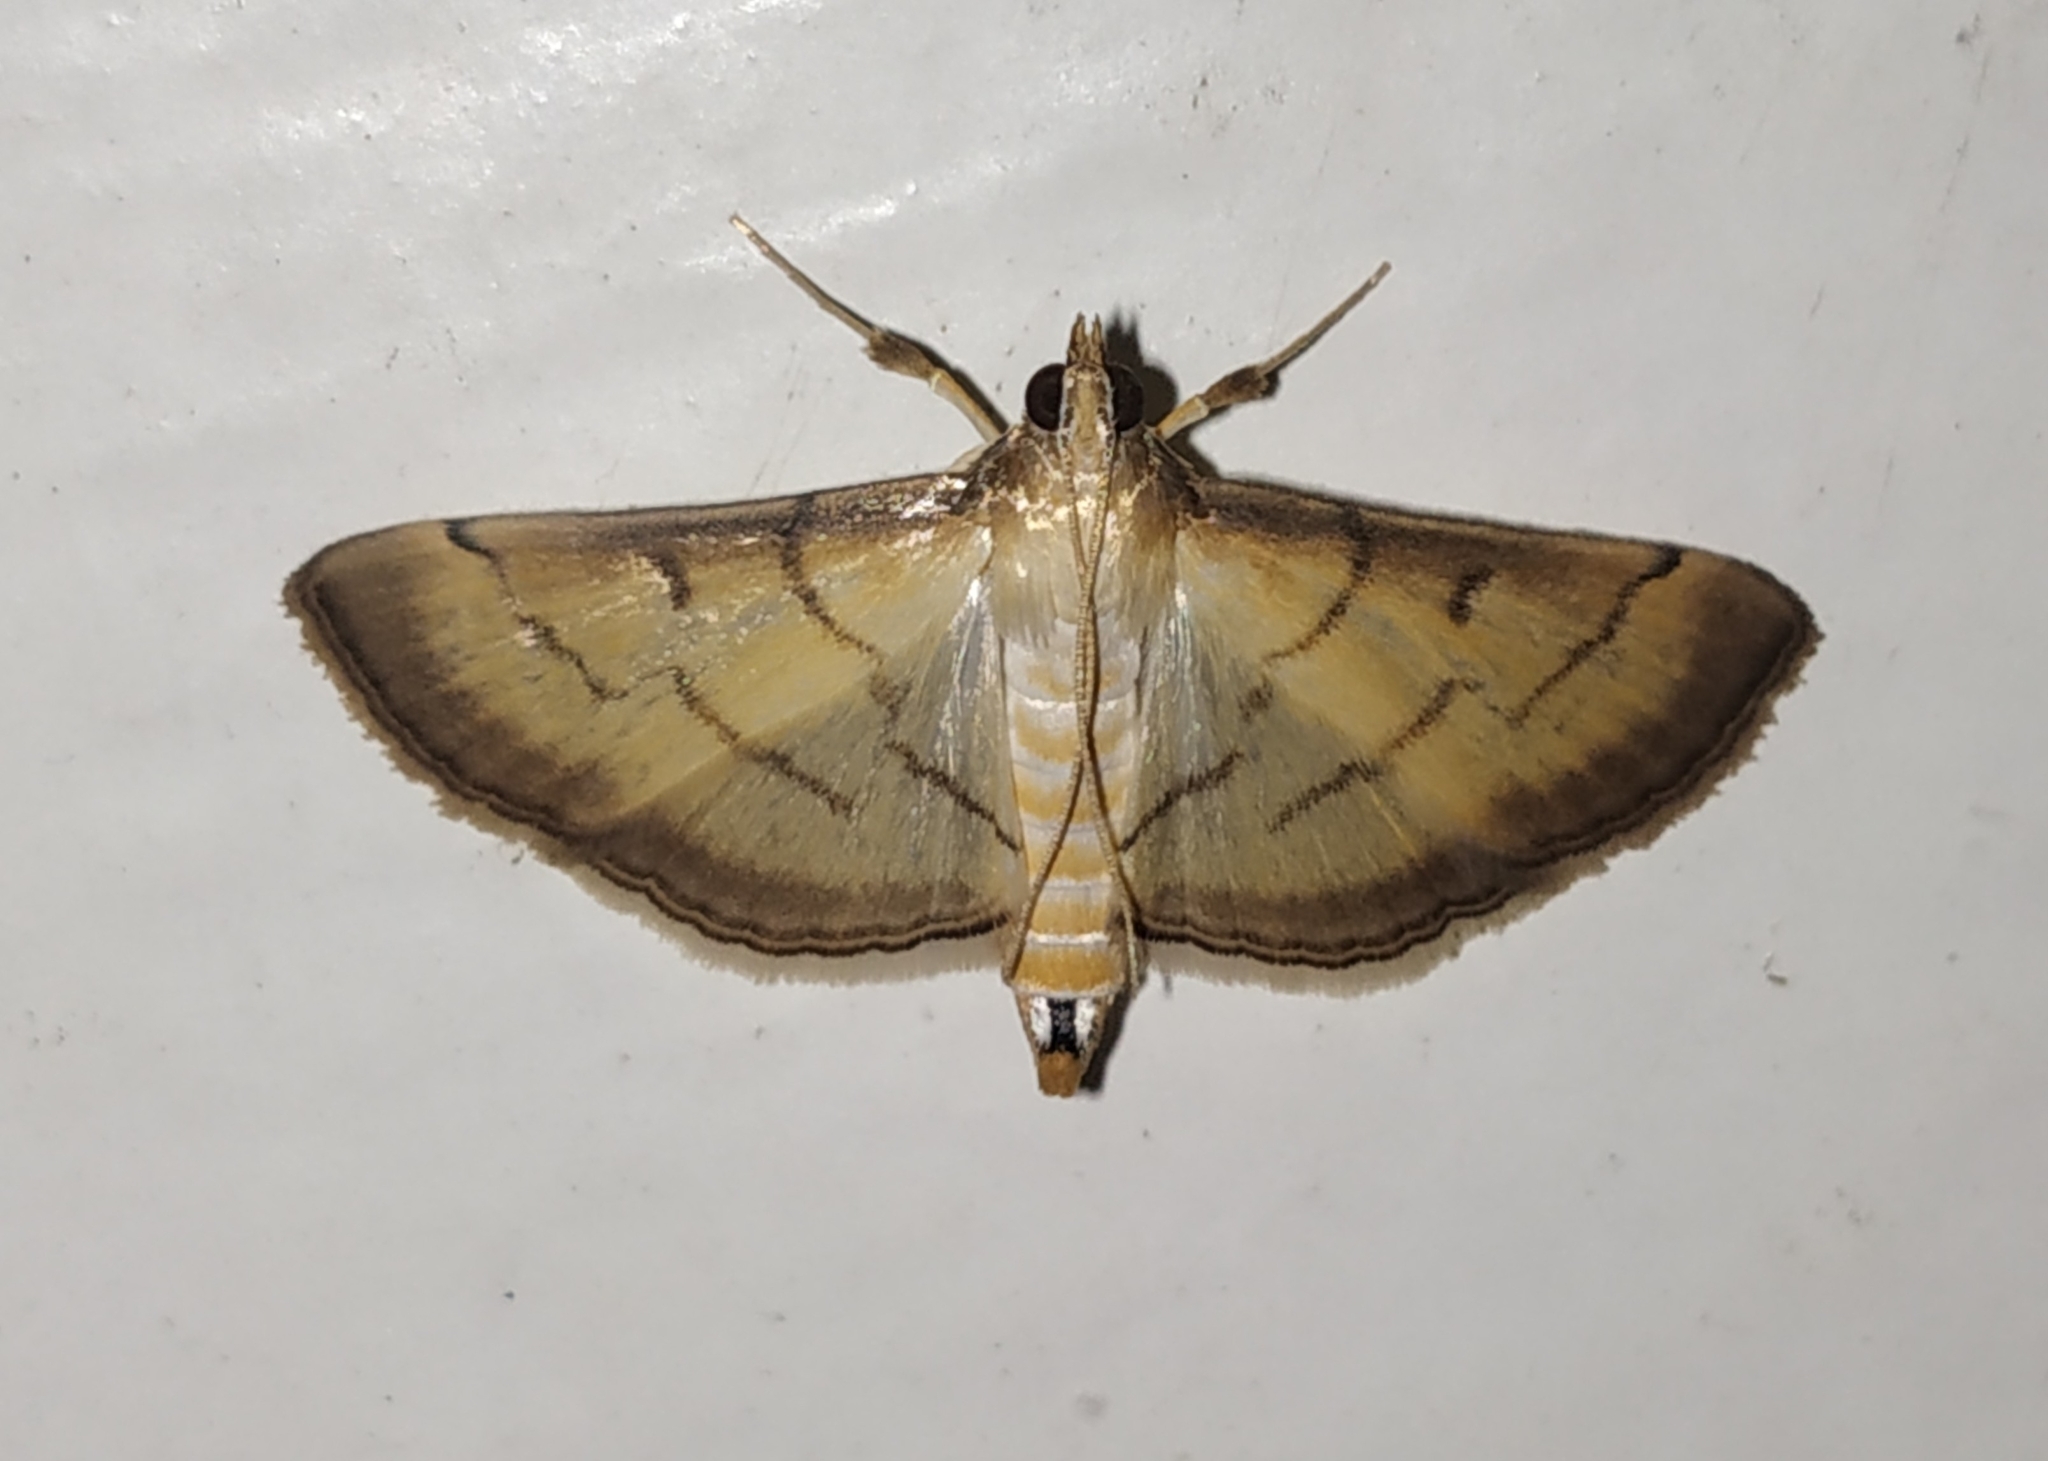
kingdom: Animalia
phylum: Arthropoda
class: Insecta
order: Lepidoptera
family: Crambidae
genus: Cnaphalocrocis
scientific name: Cnaphalocrocis patnalis
